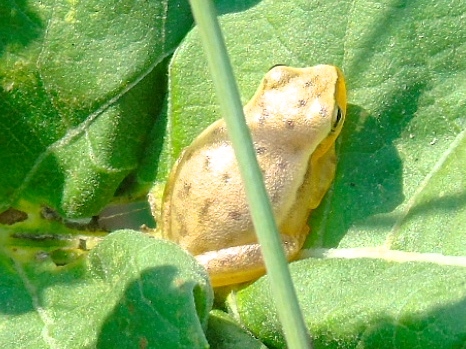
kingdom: Animalia
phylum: Chordata
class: Amphibia
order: Anura
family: Hylidae
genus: Tlalocohyla
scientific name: Tlalocohyla smithii
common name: Dwarf mexican treefrog
